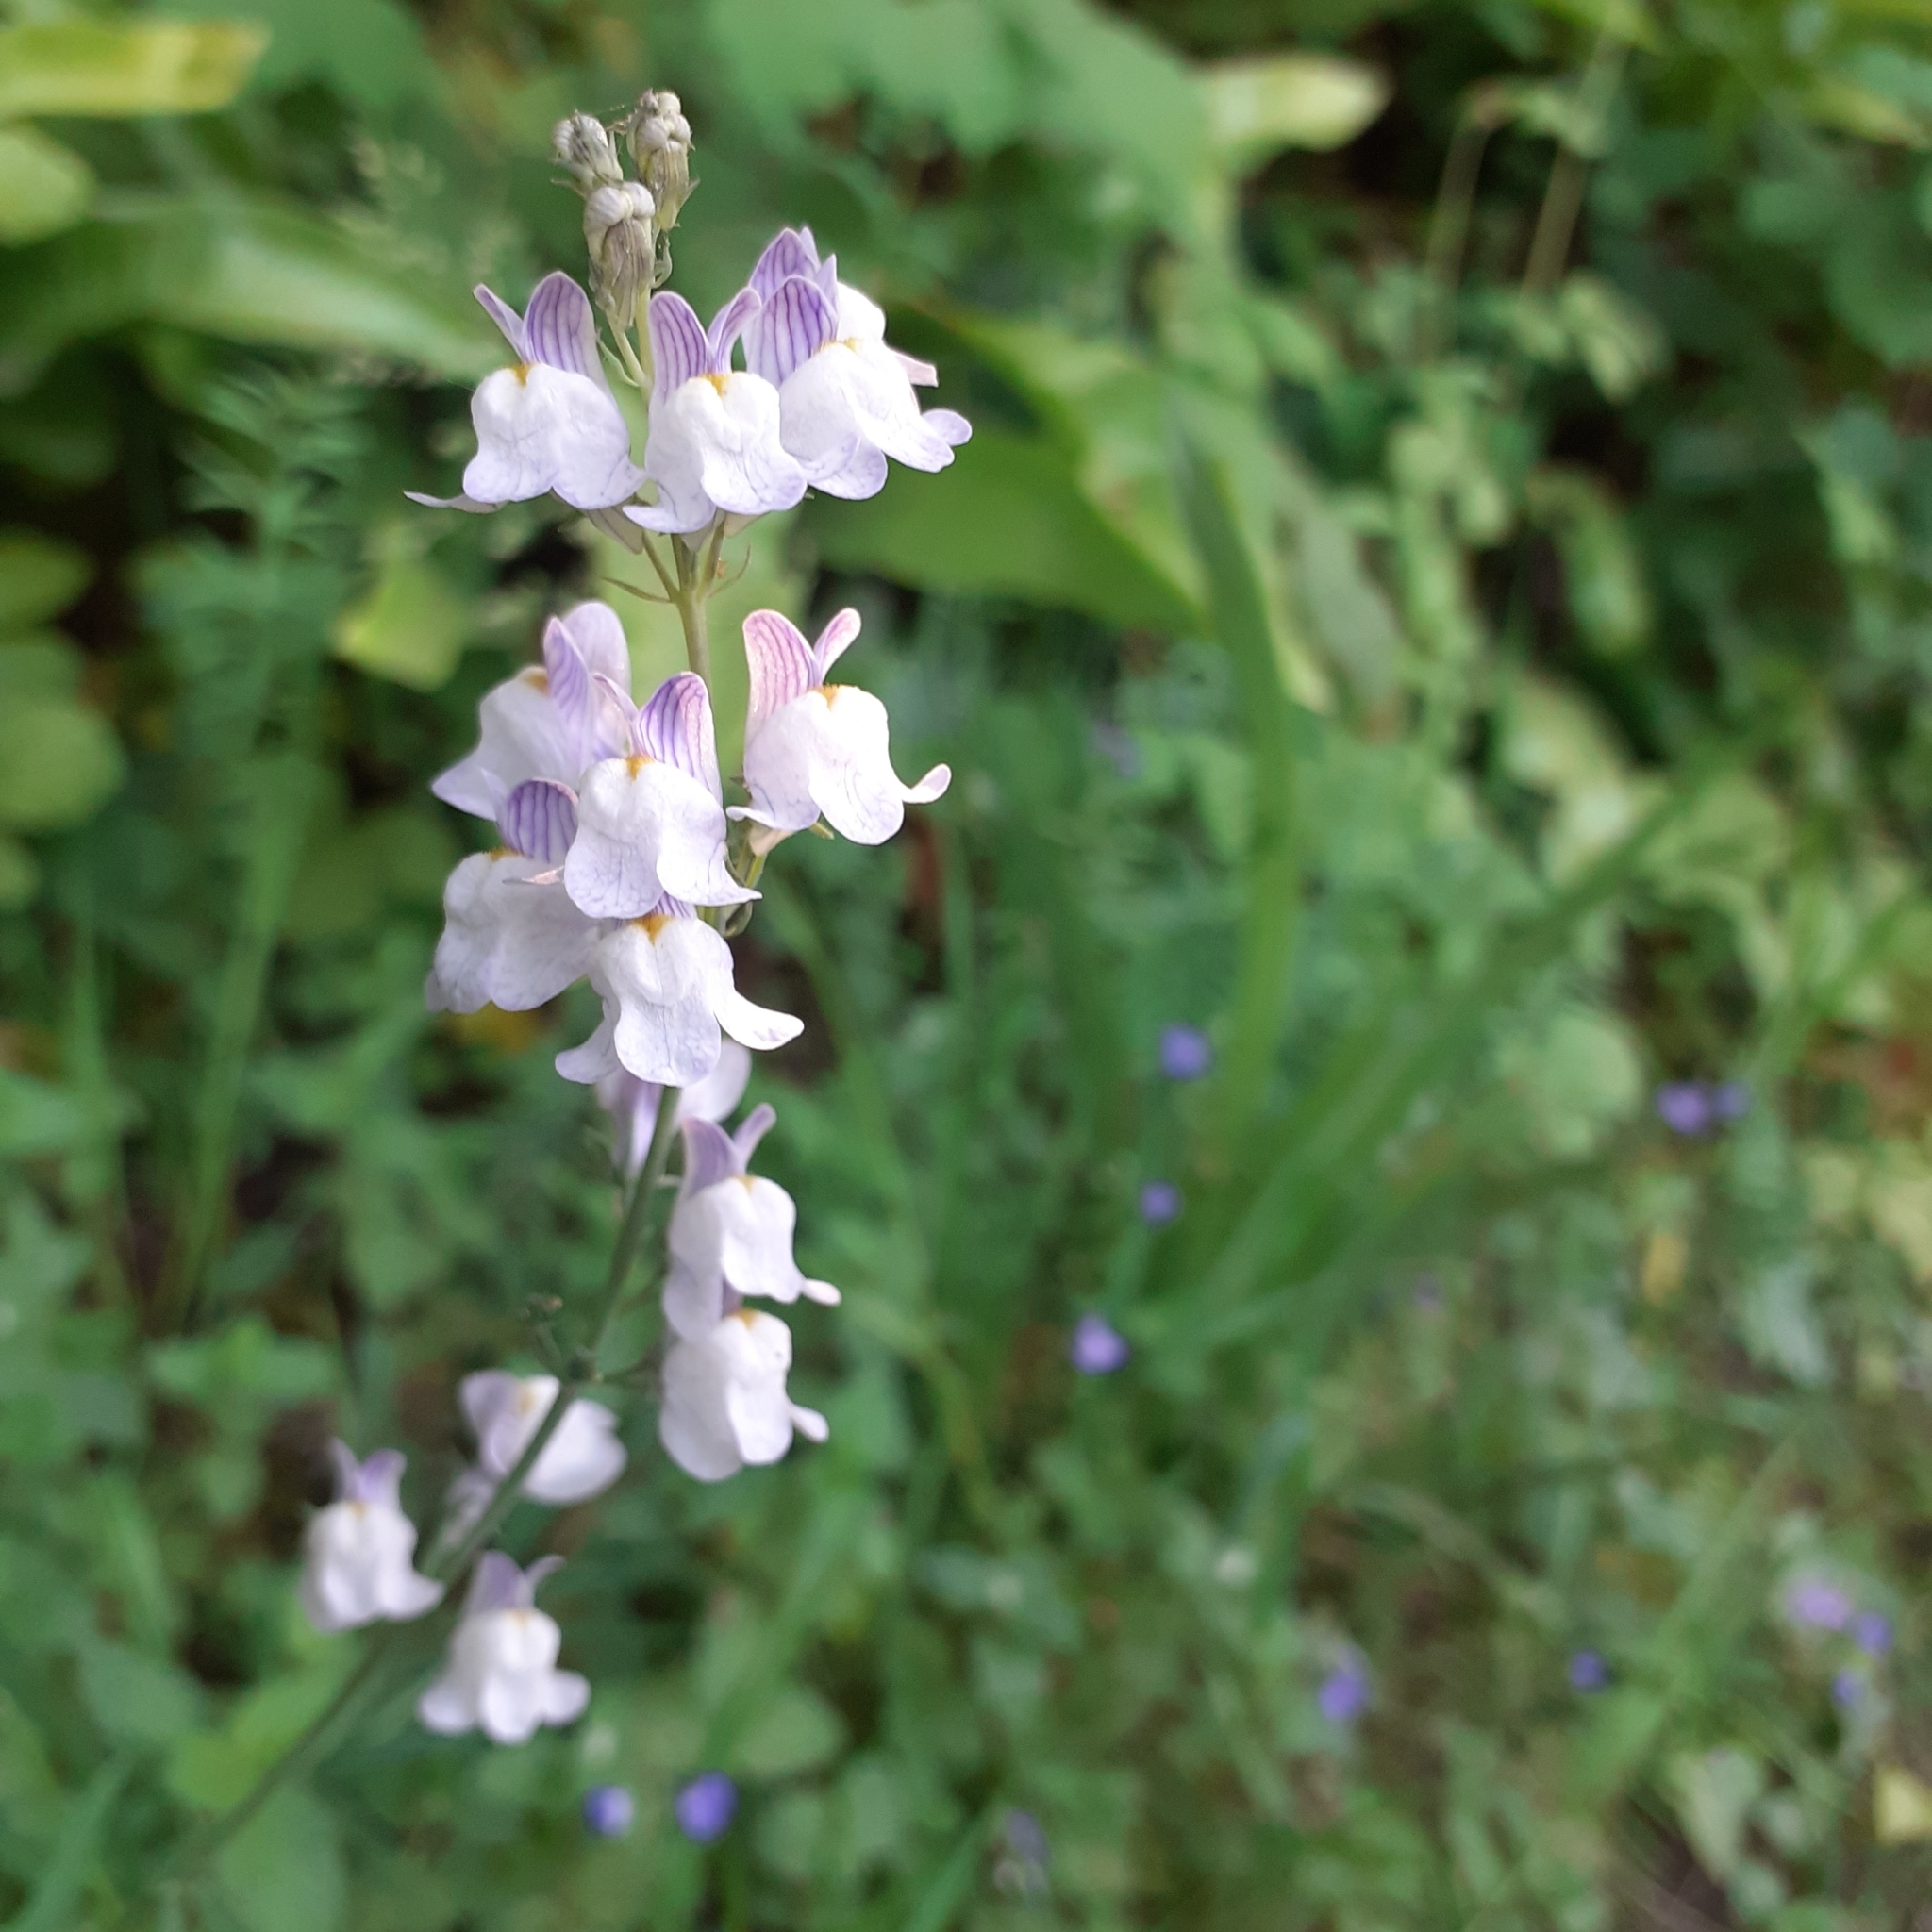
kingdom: Plantae
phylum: Tracheophyta
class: Magnoliopsida
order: Lamiales
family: Plantaginaceae
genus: Linaria
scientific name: Linaria repens
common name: Pale toadflax
